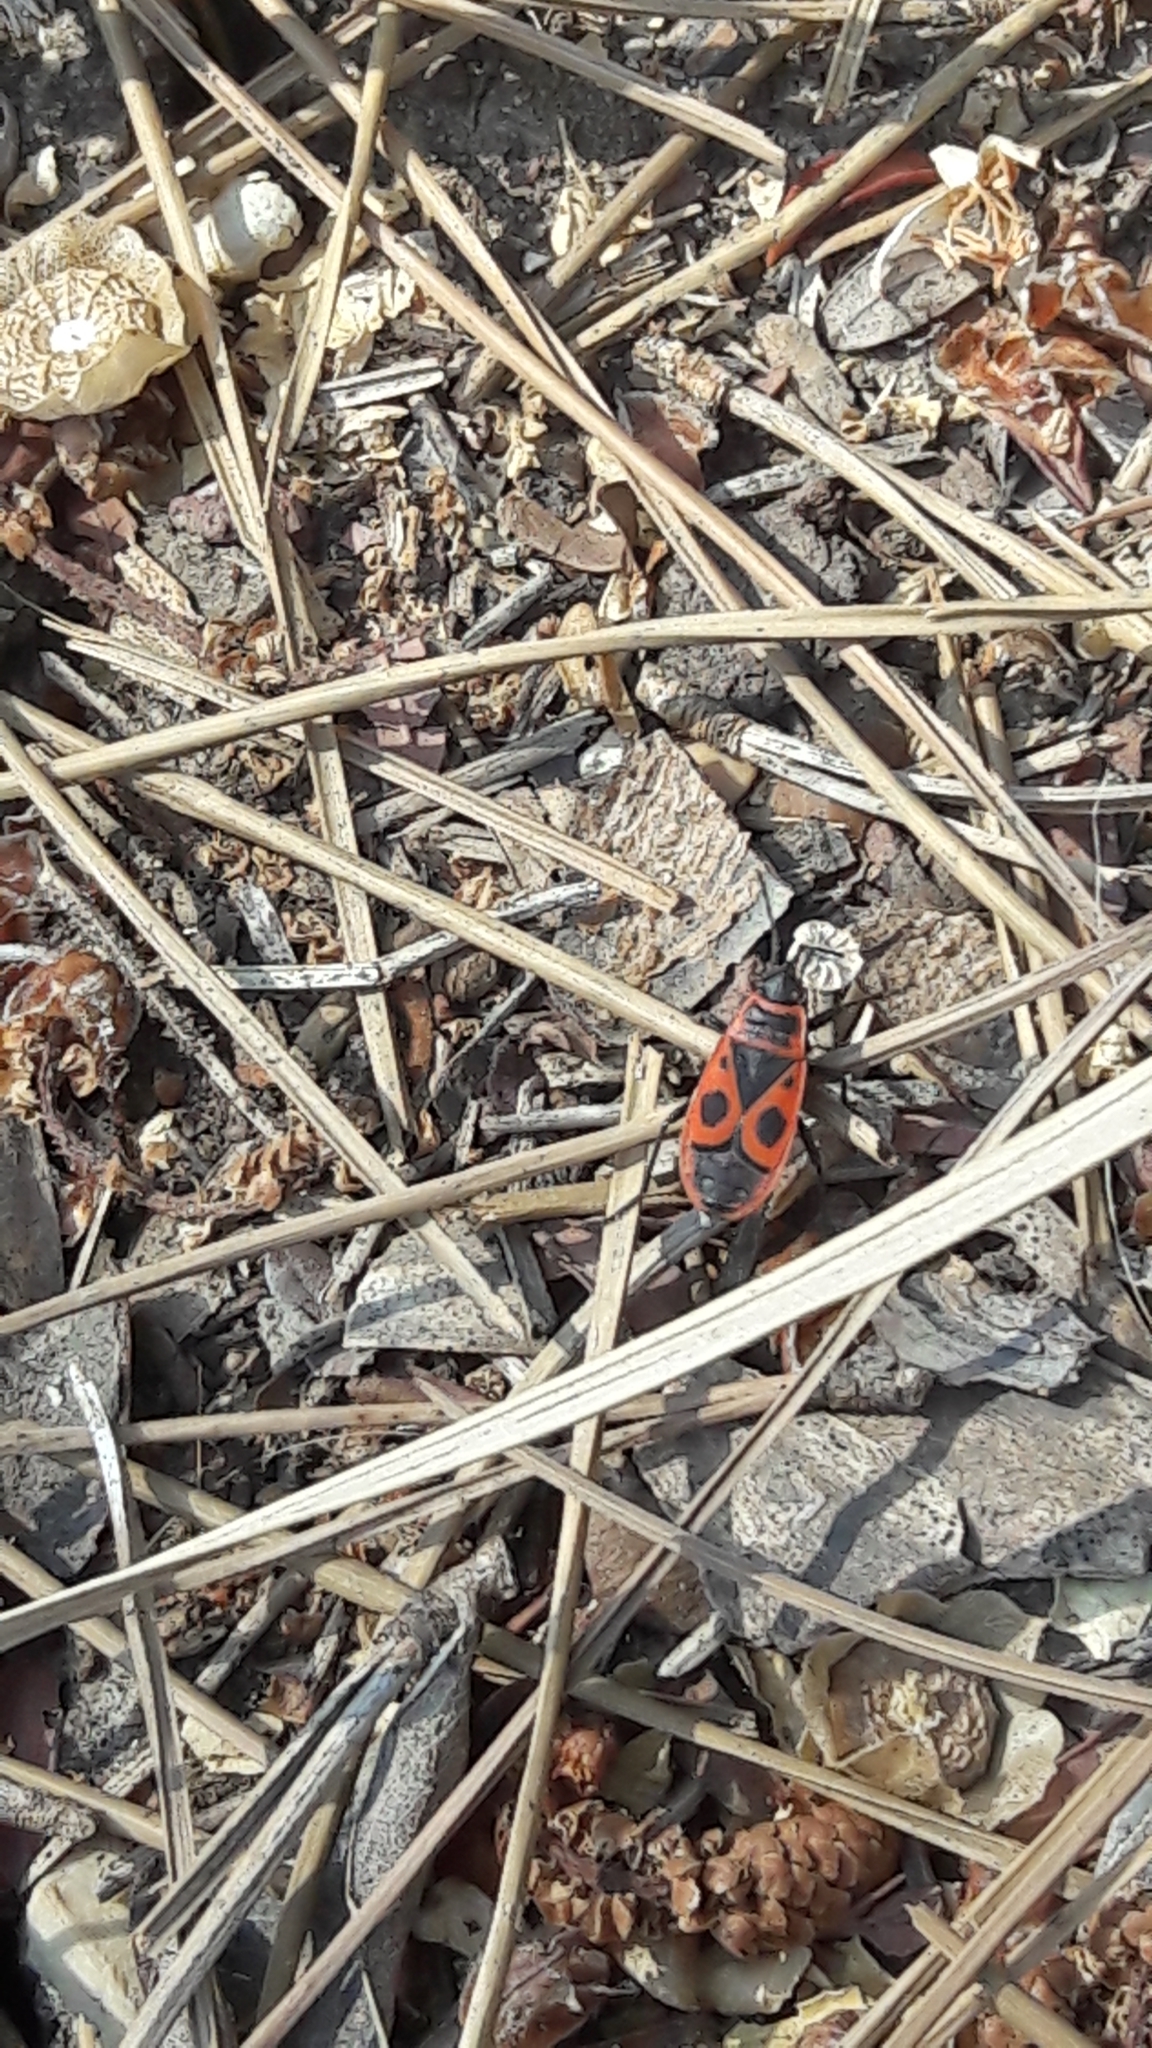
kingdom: Animalia
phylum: Arthropoda
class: Insecta
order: Hemiptera
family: Pyrrhocoridae
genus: Pyrrhocoris
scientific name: Pyrrhocoris apterus
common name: Firebug
